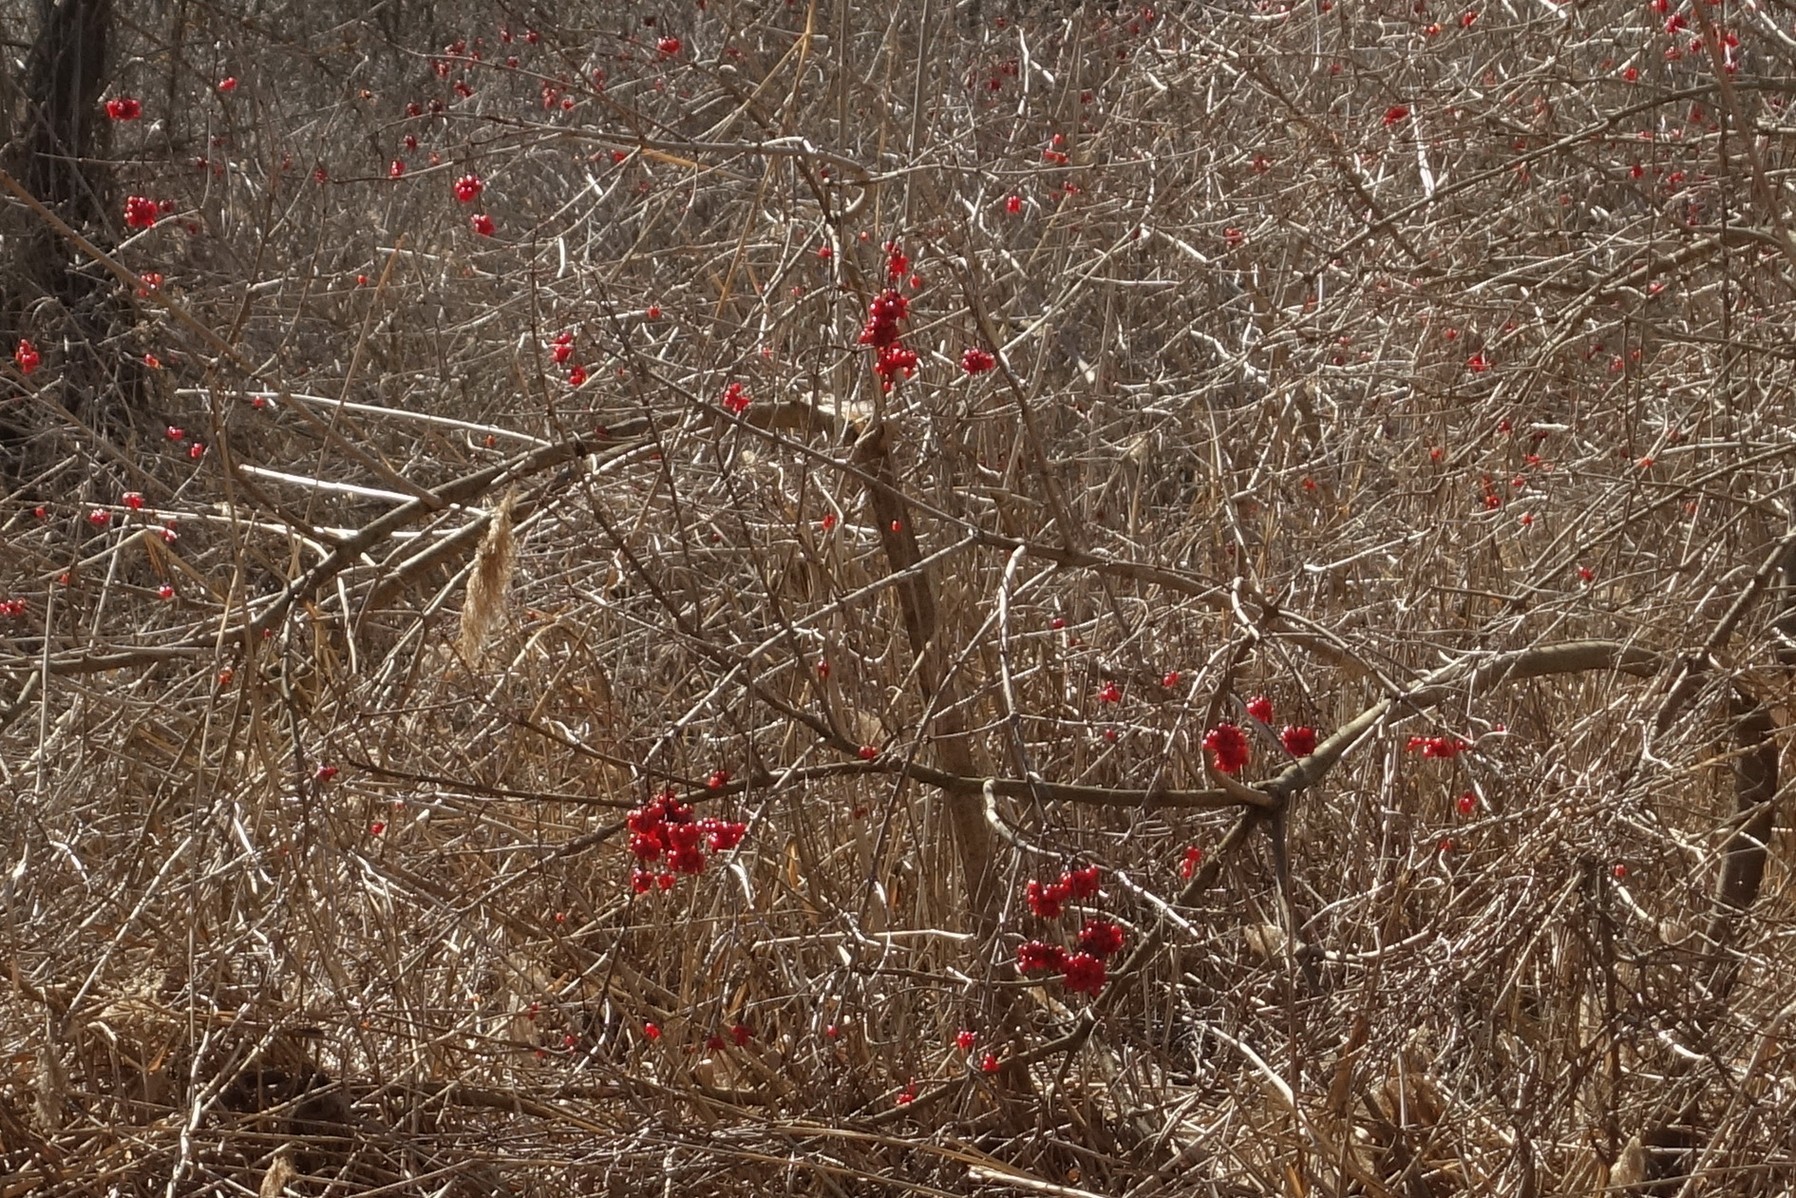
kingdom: Plantae
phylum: Tracheophyta
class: Magnoliopsida
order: Dipsacales
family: Viburnaceae
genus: Viburnum
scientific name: Viburnum opulus
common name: Guelder-rose
